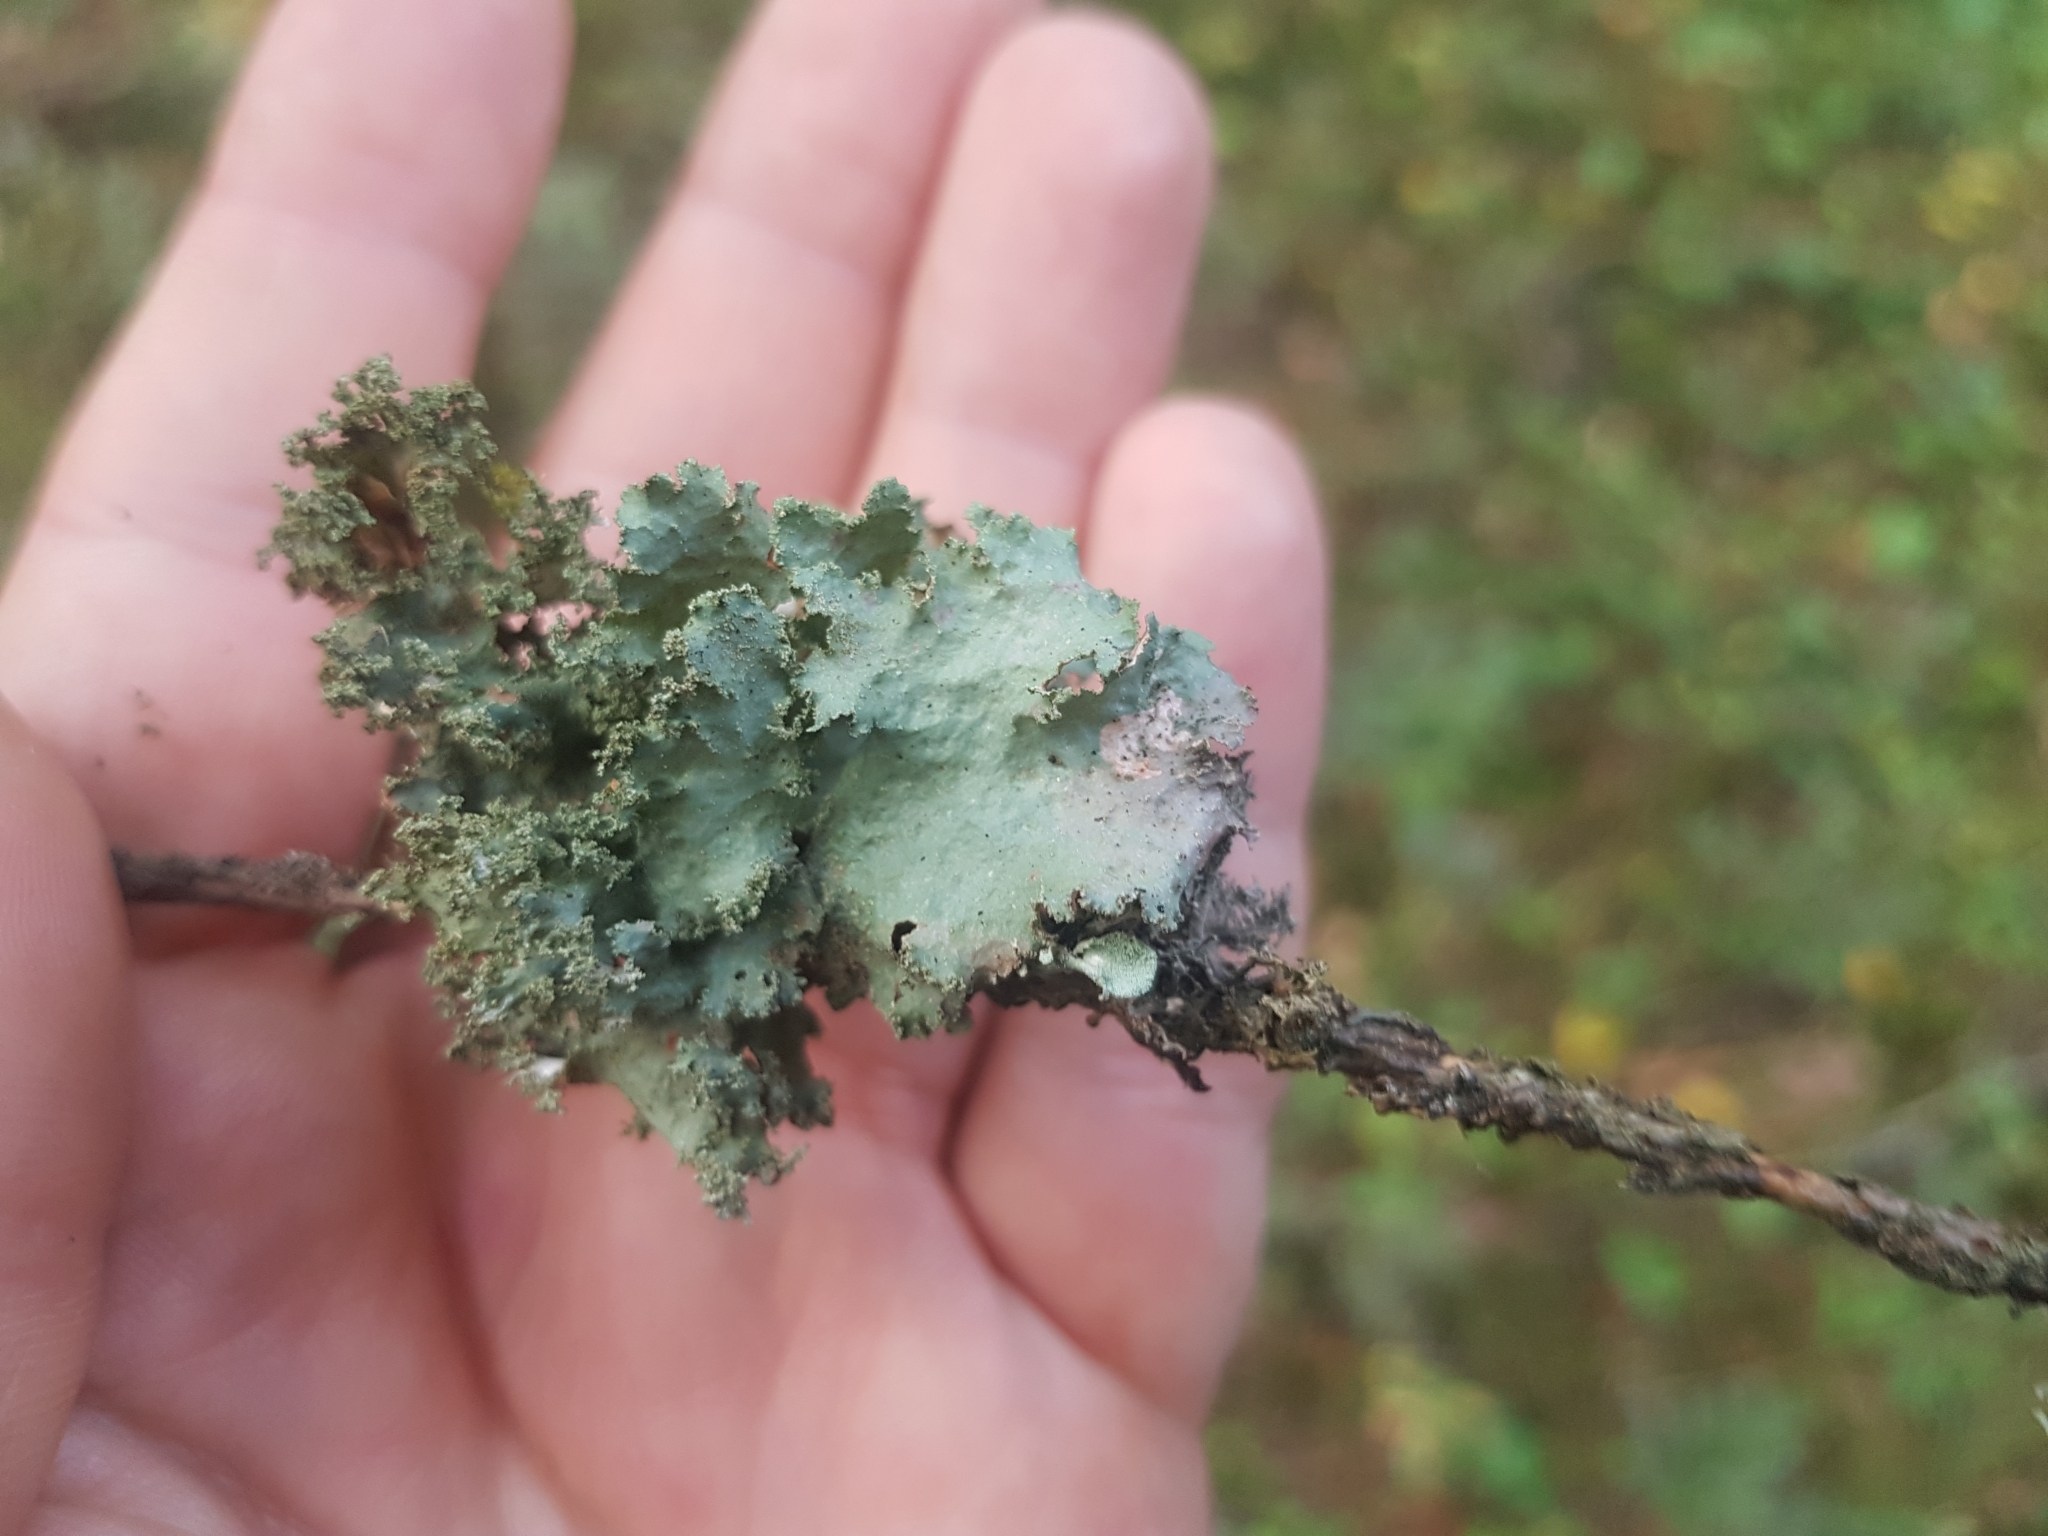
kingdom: Fungi
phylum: Ascomycota
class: Lecanoromycetes
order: Lecanorales
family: Parmeliaceae
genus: Platismatia
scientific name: Platismatia glauca
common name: Varied rag lichen
